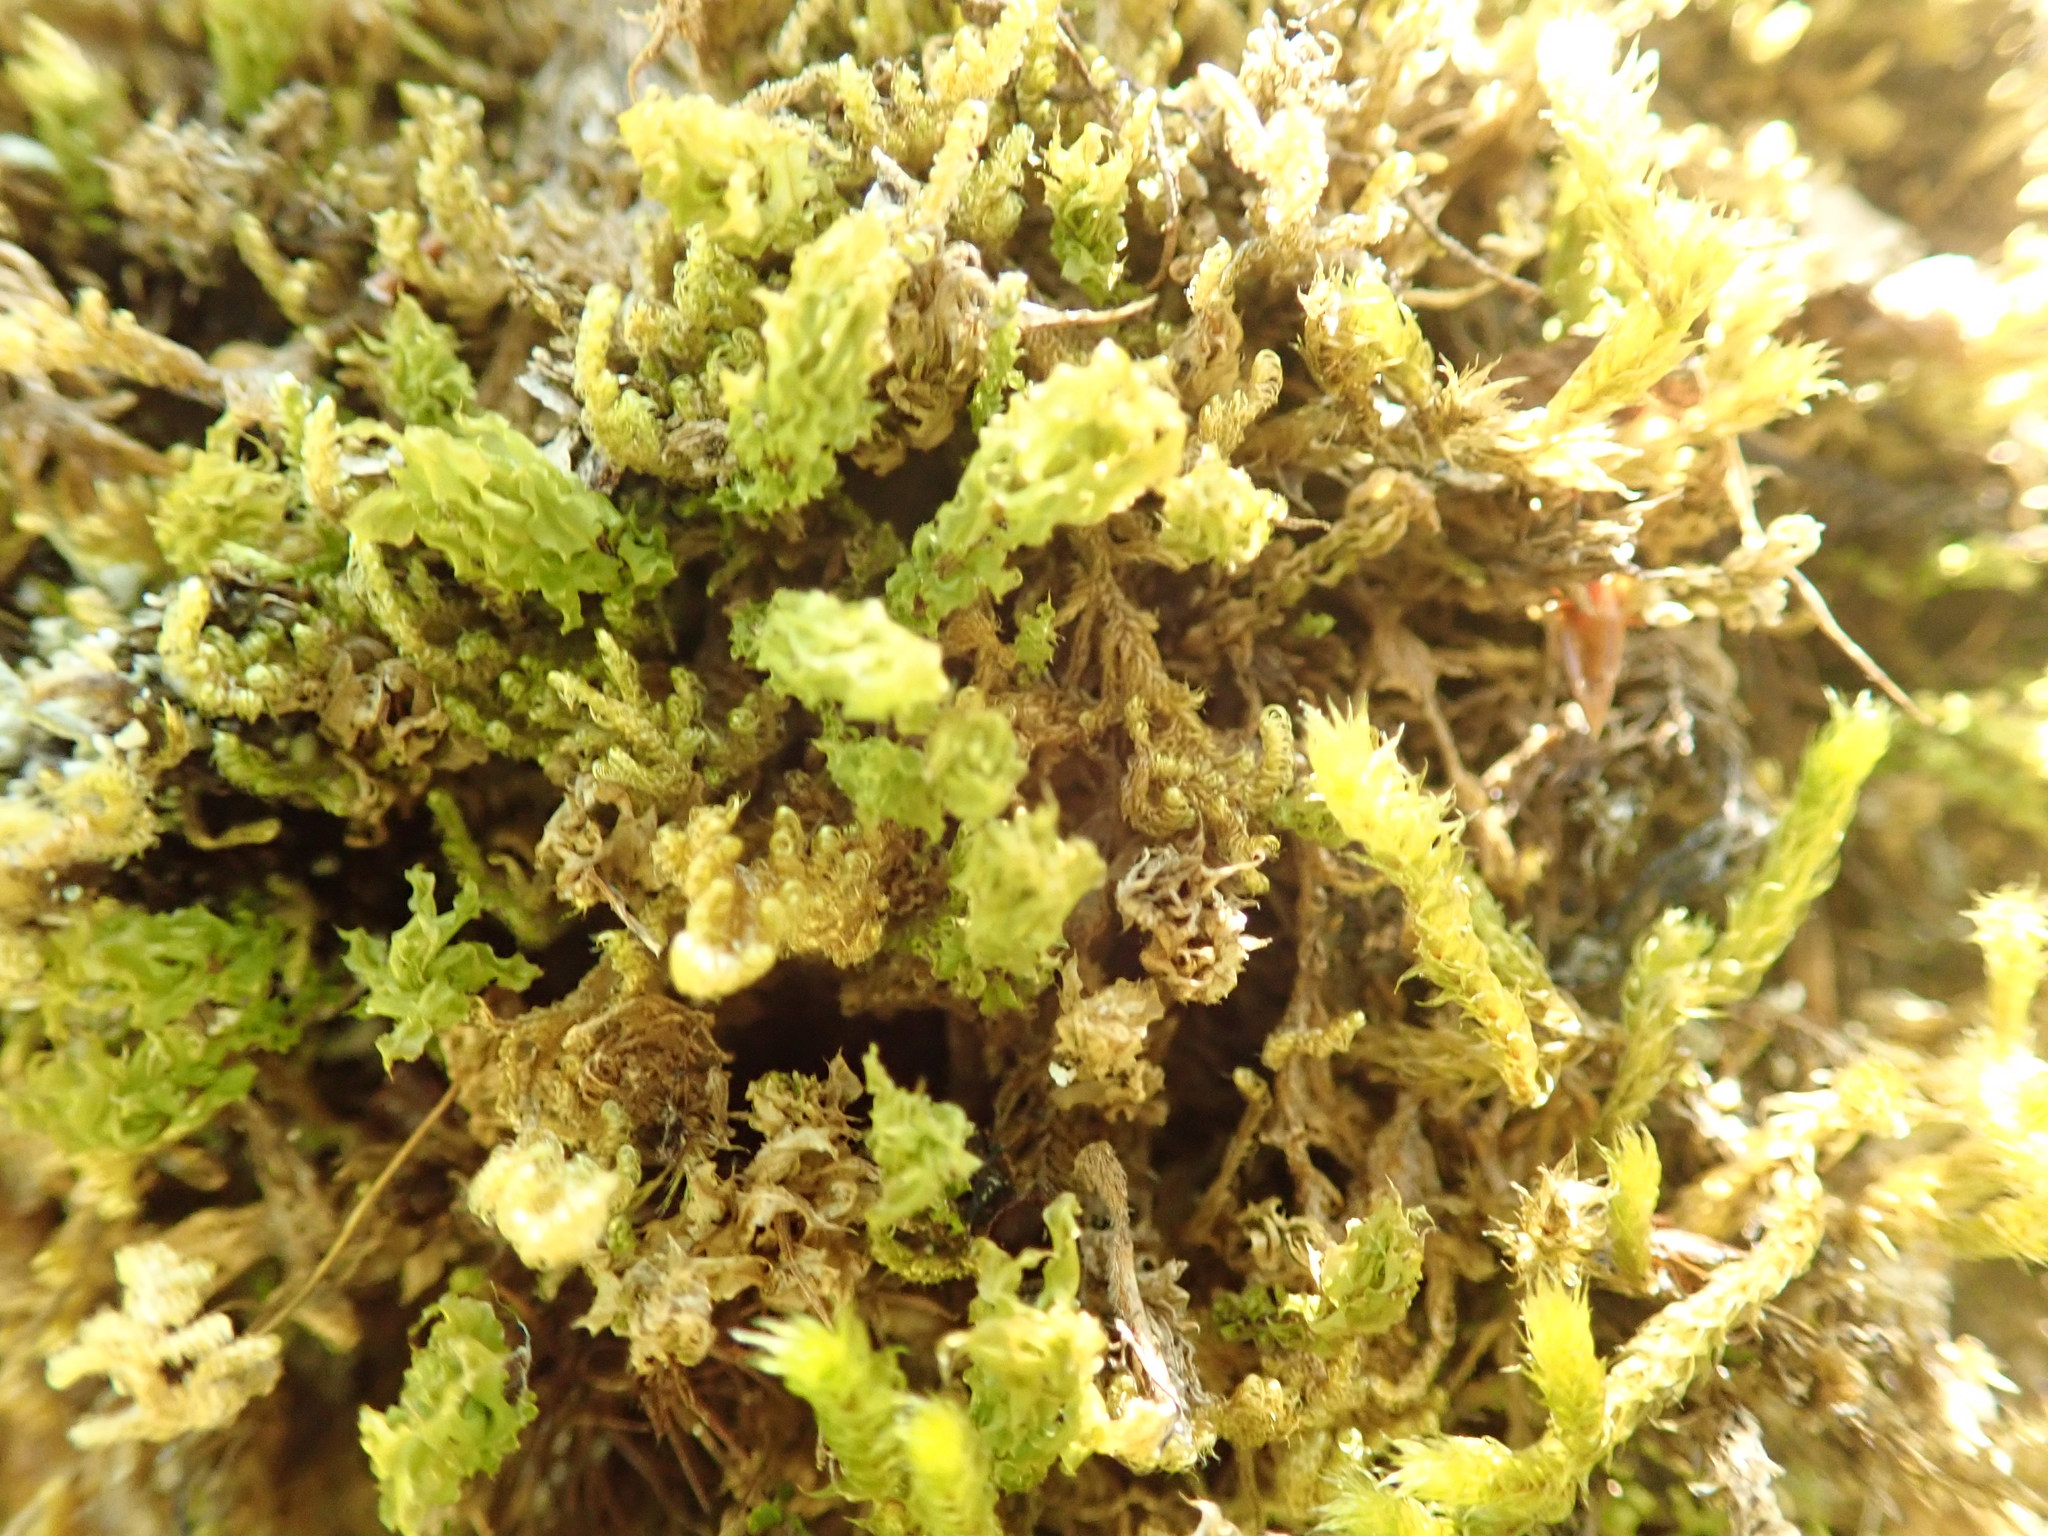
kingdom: Plantae
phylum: Bryophyta
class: Bryopsida
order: Bryales
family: Mniaceae
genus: Plagiomnium
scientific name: Plagiomnium venustum
